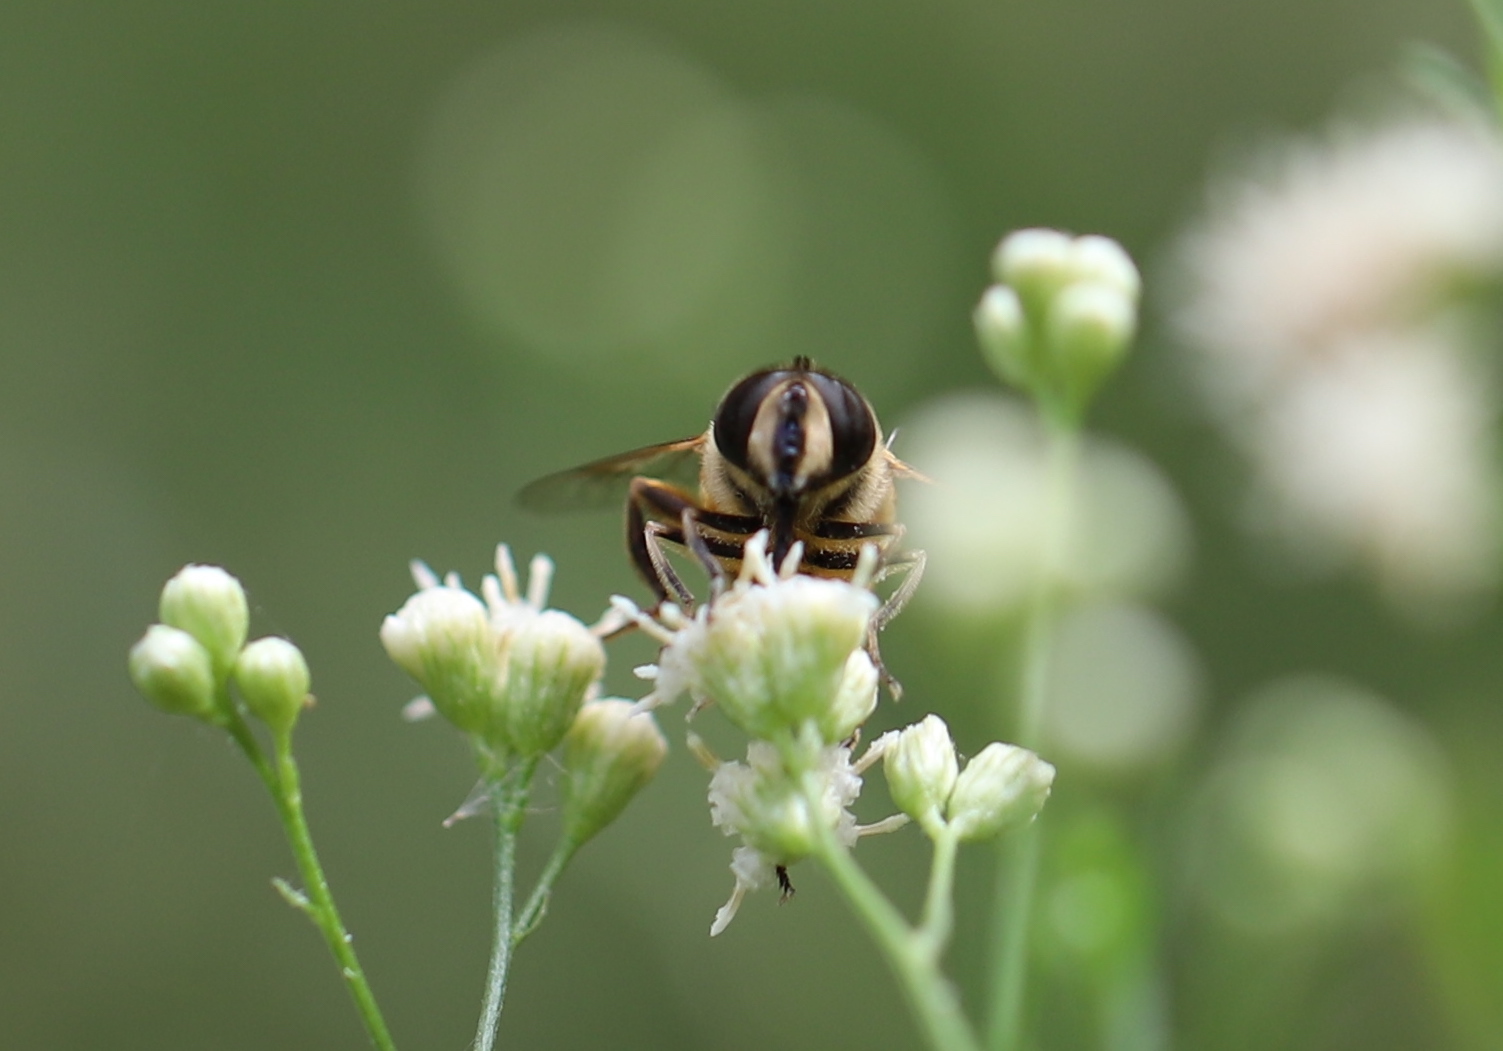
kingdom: Animalia
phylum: Arthropoda
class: Insecta
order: Diptera
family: Syrphidae
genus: Eristalis
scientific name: Eristalis tenax
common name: Drone fly
